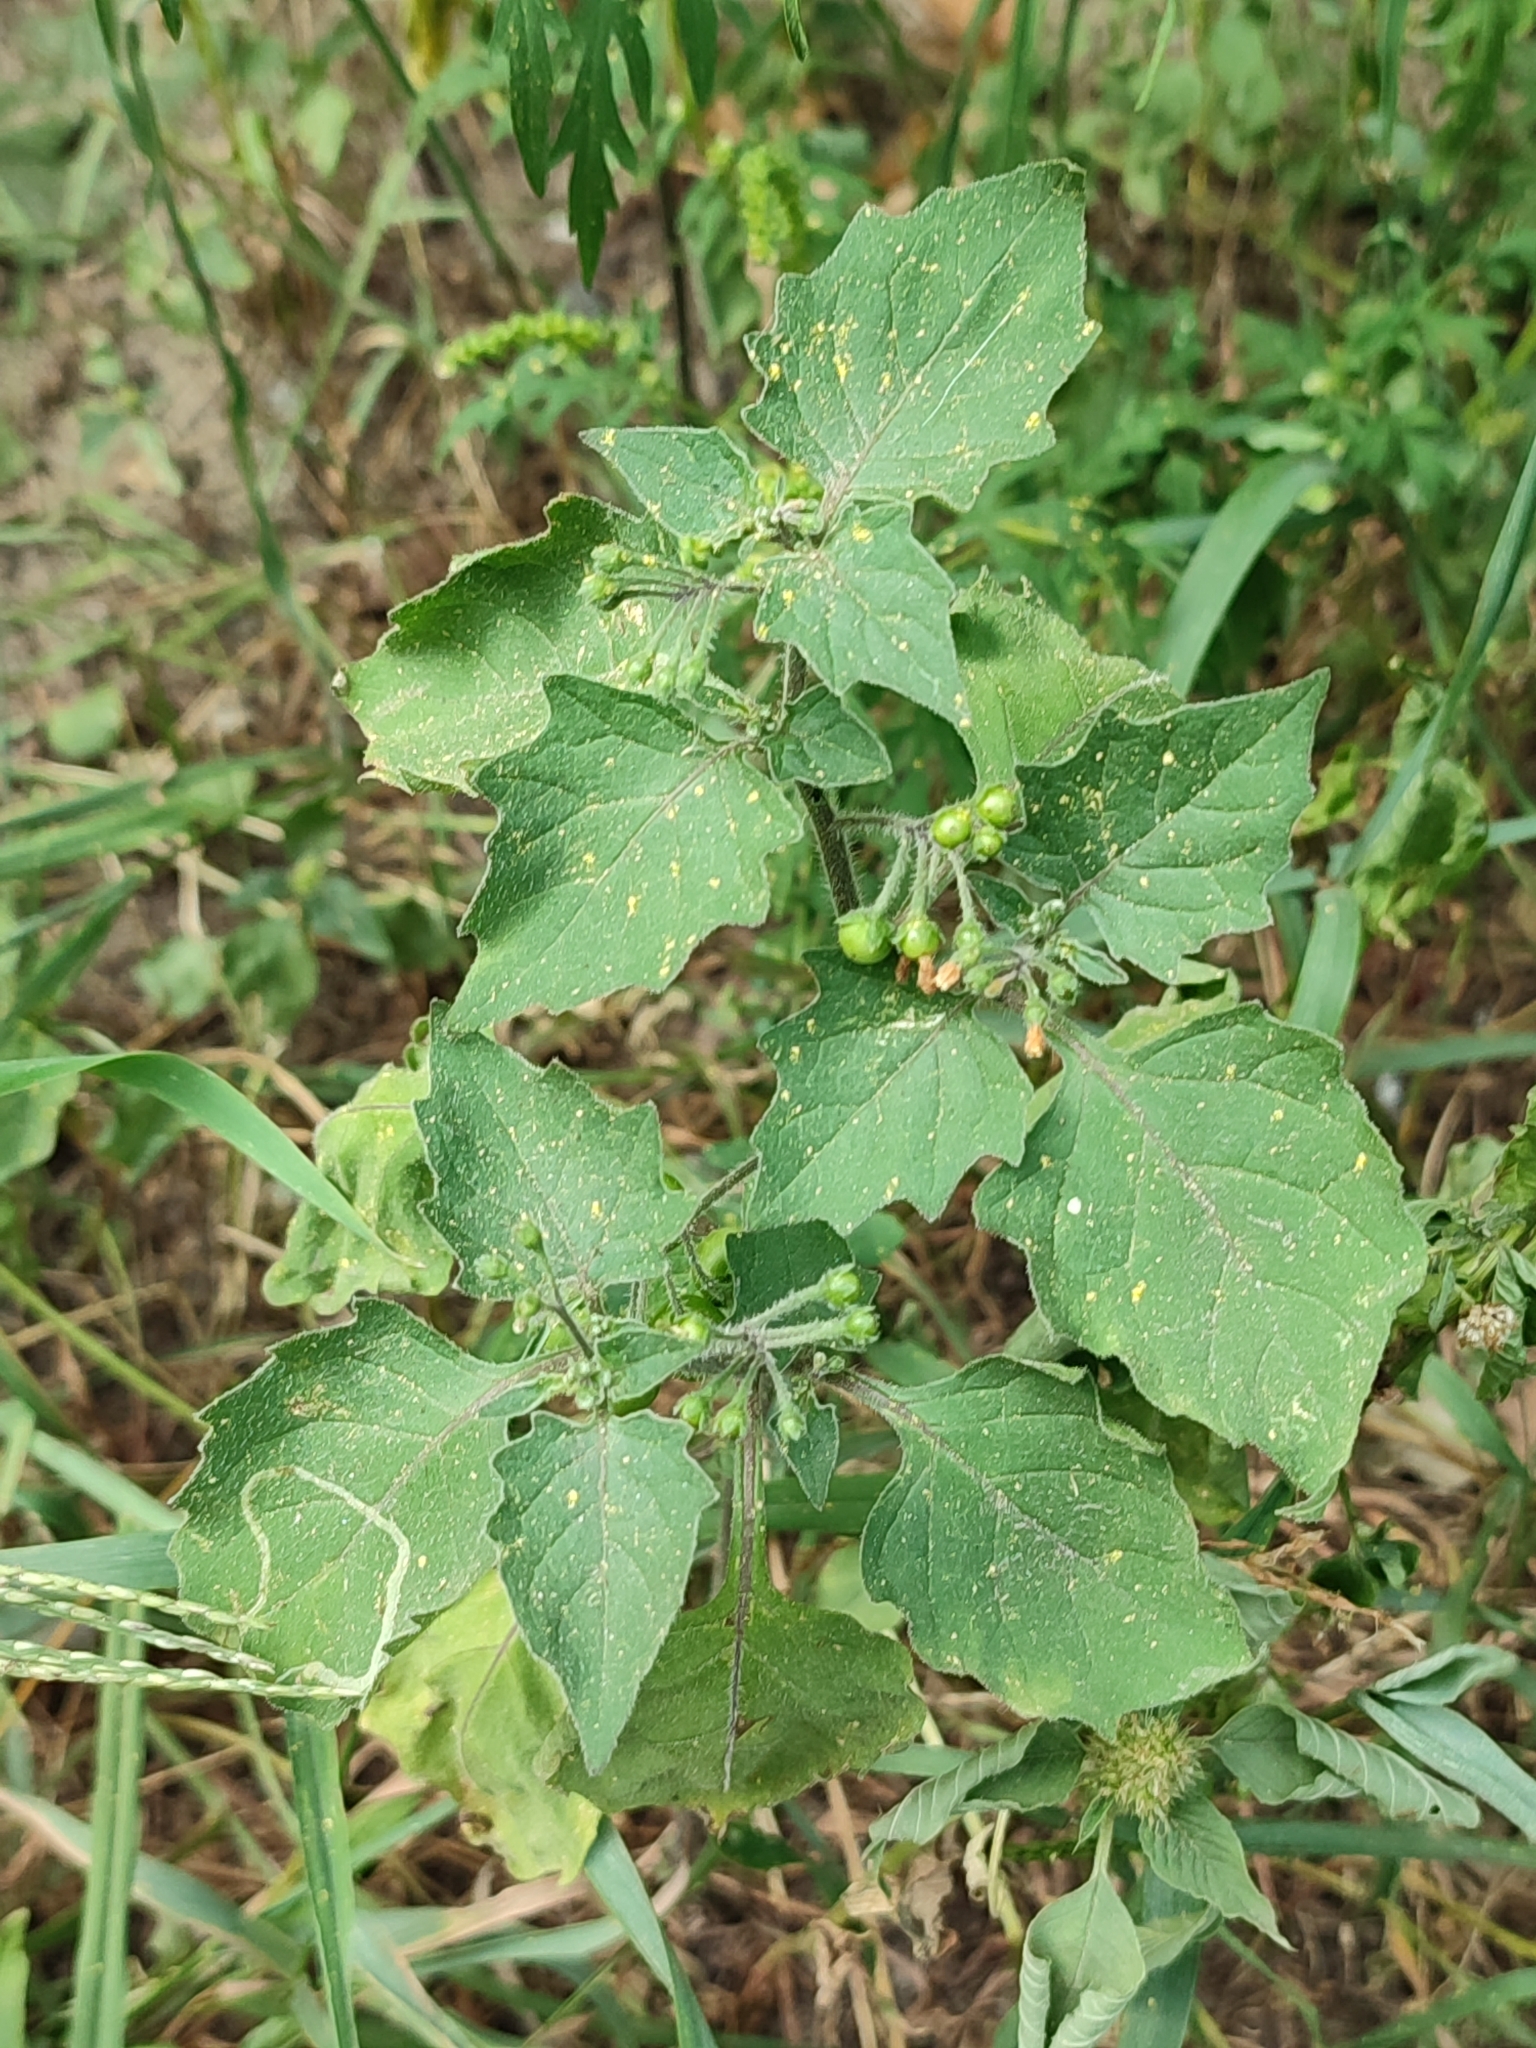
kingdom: Plantae
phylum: Tracheophyta
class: Magnoliopsida
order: Solanales
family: Solanaceae
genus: Solanum
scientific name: Solanum nigrum
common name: Black nightshade
